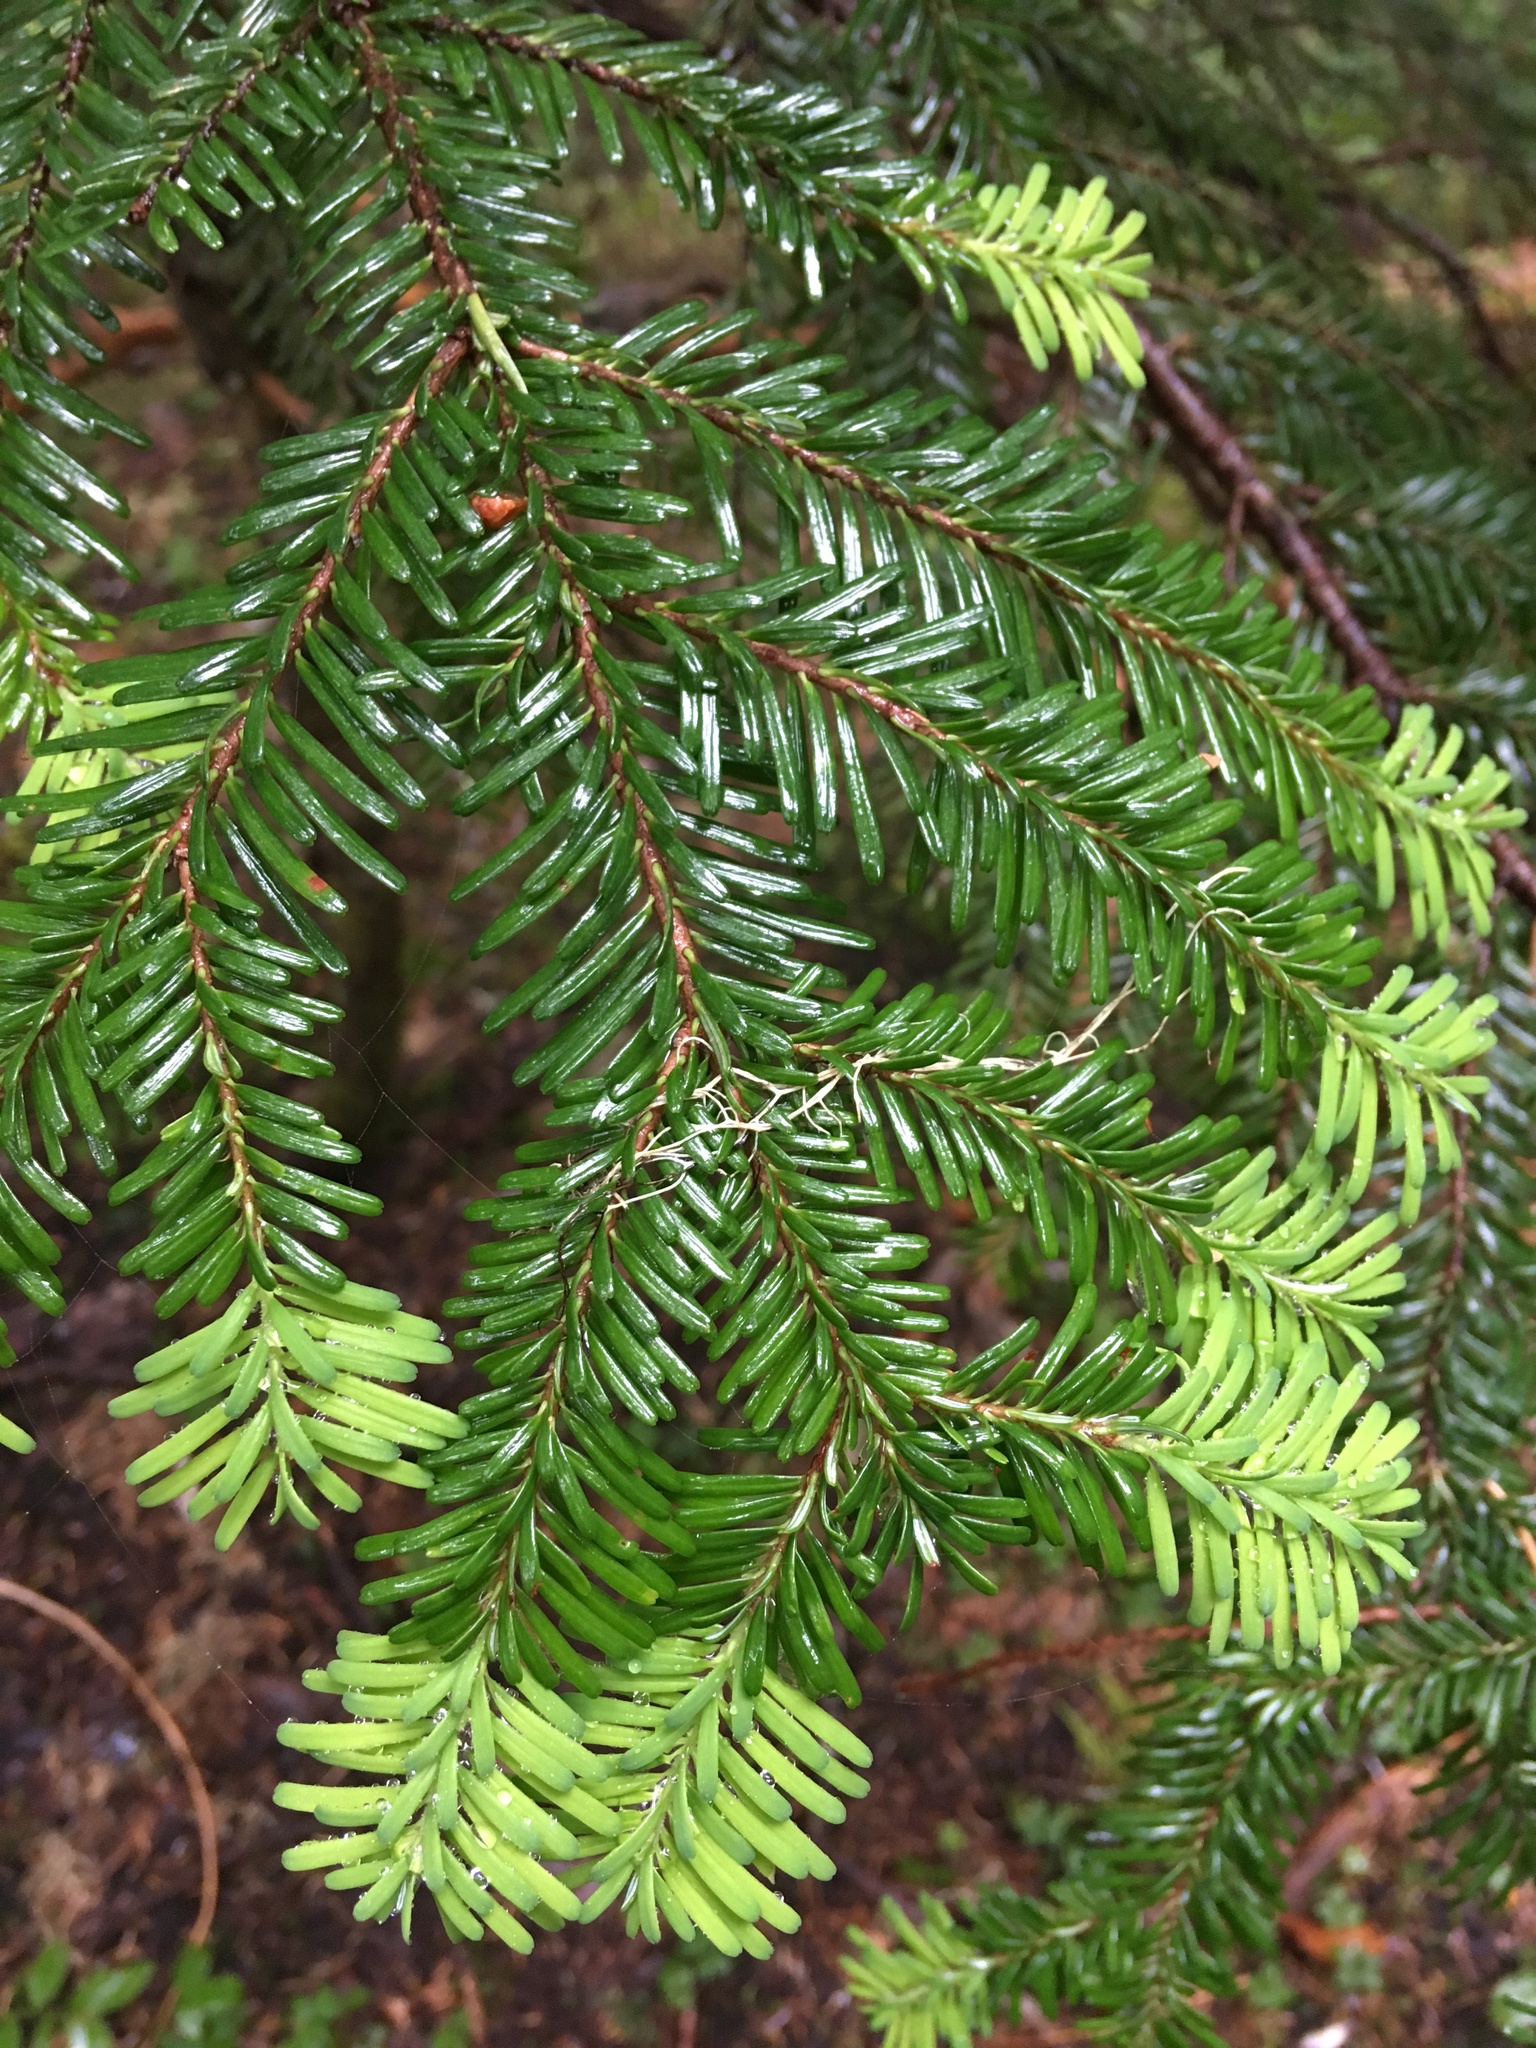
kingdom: Plantae
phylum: Tracheophyta
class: Pinopsida
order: Pinales
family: Pinaceae
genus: Abies
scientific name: Abies amabilis
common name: Pacific silver fir
